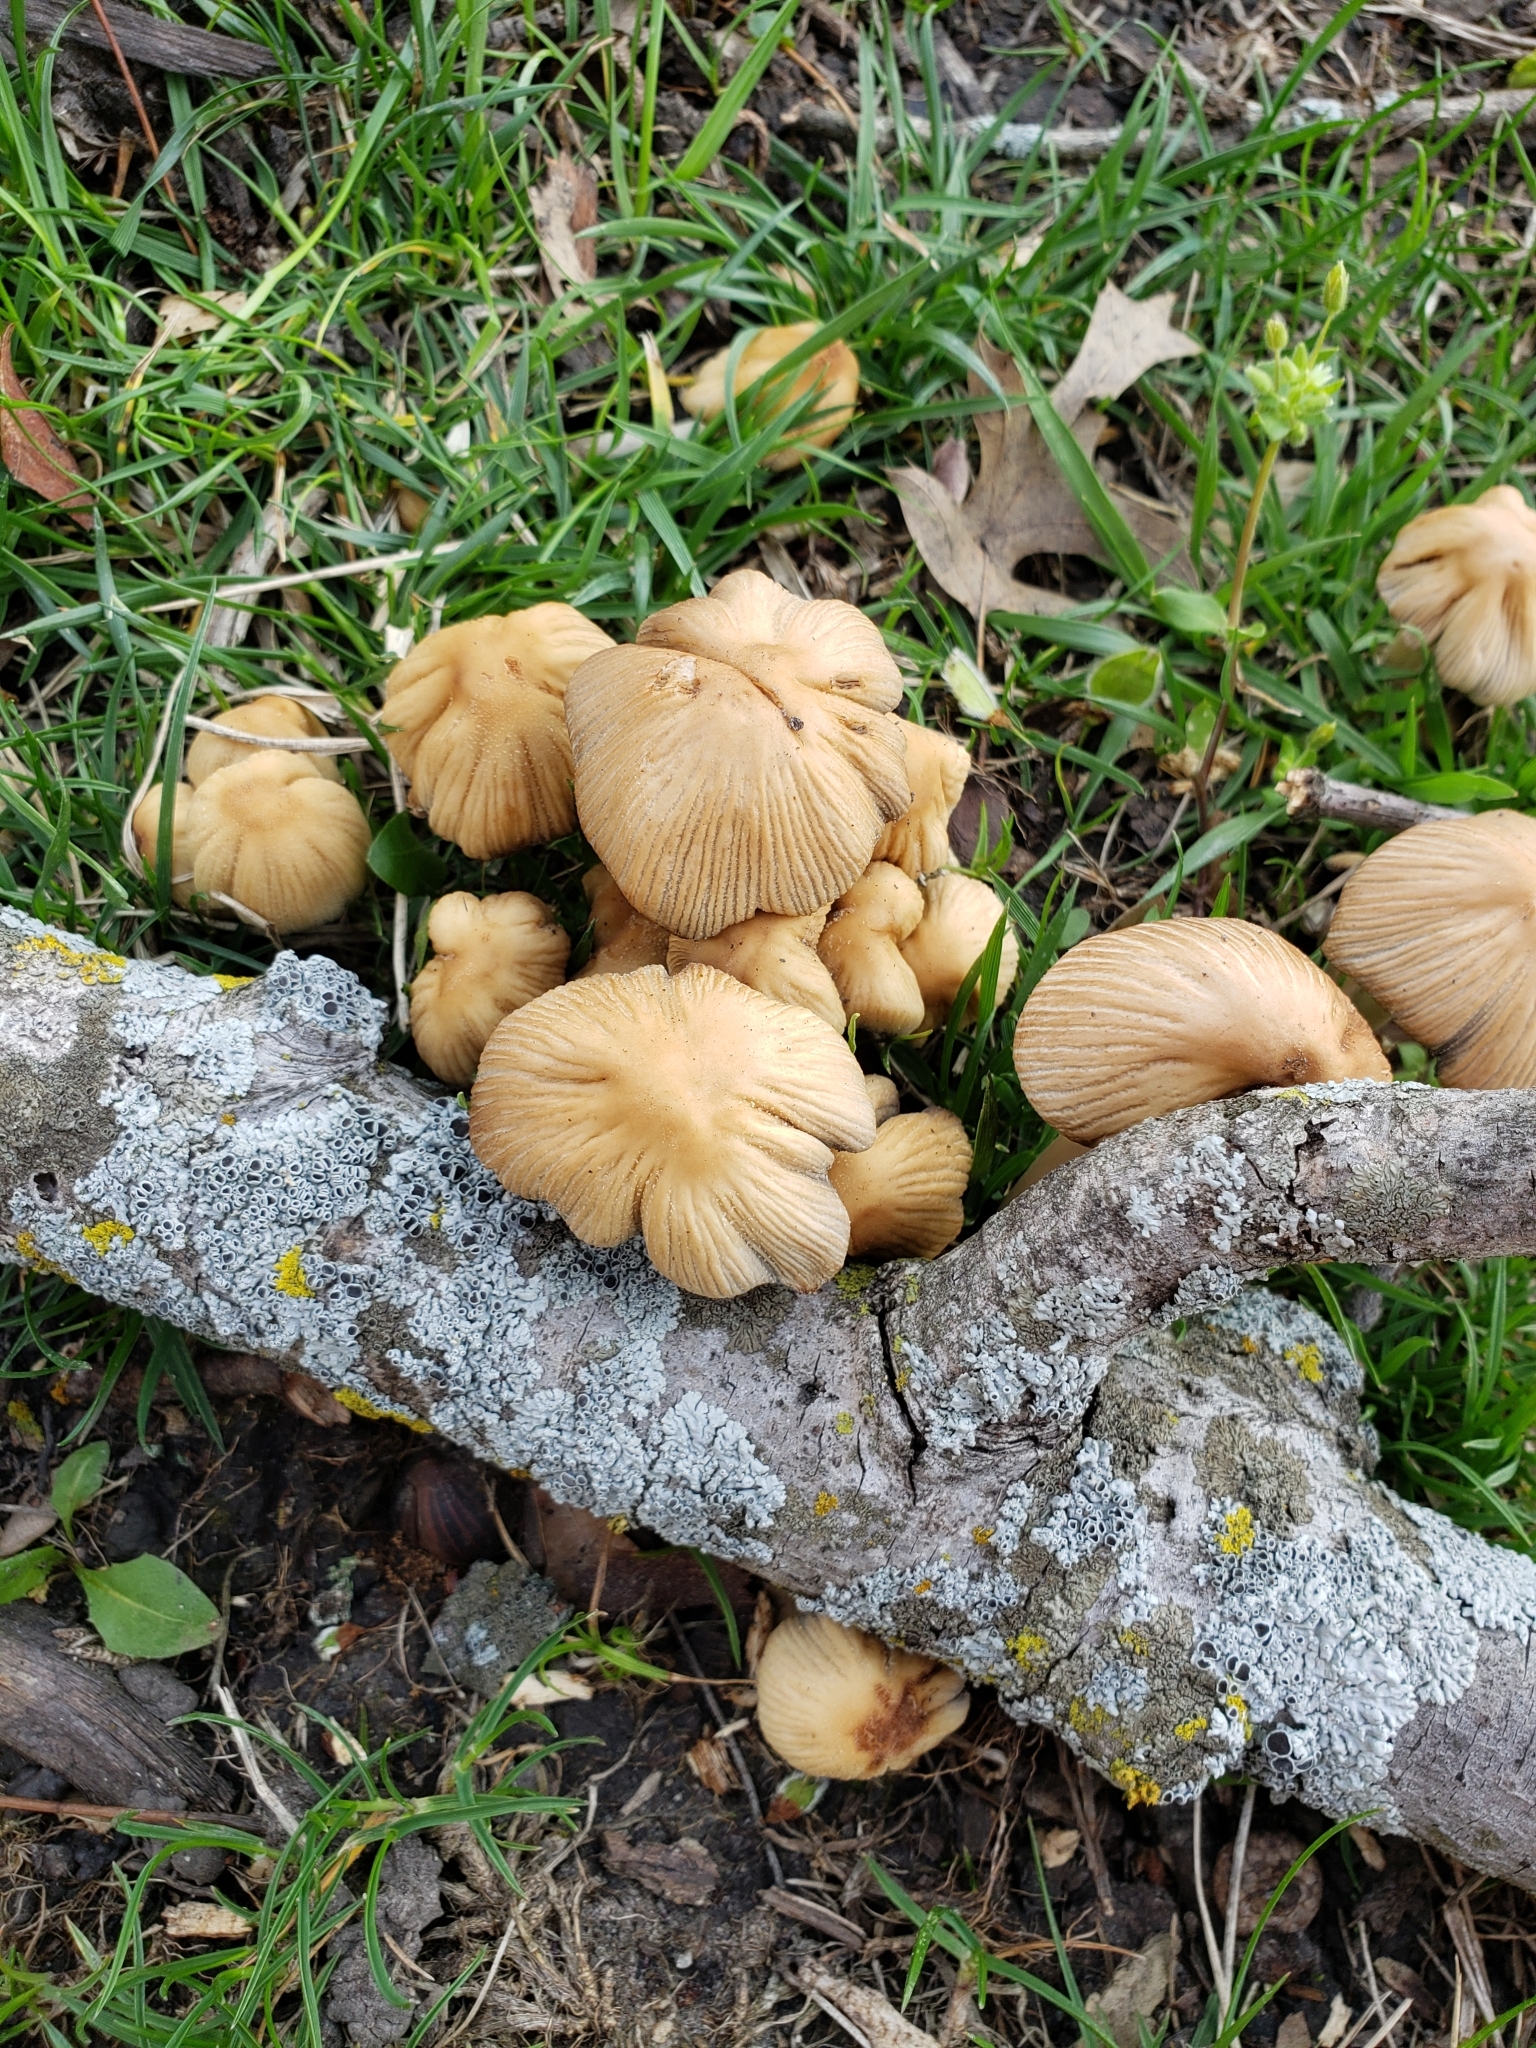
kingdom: Fungi
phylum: Basidiomycota
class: Agaricomycetes
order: Agaricales
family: Marasmiaceae
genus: Marasmius
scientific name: Marasmius oreades
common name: Fairy ring champignon
